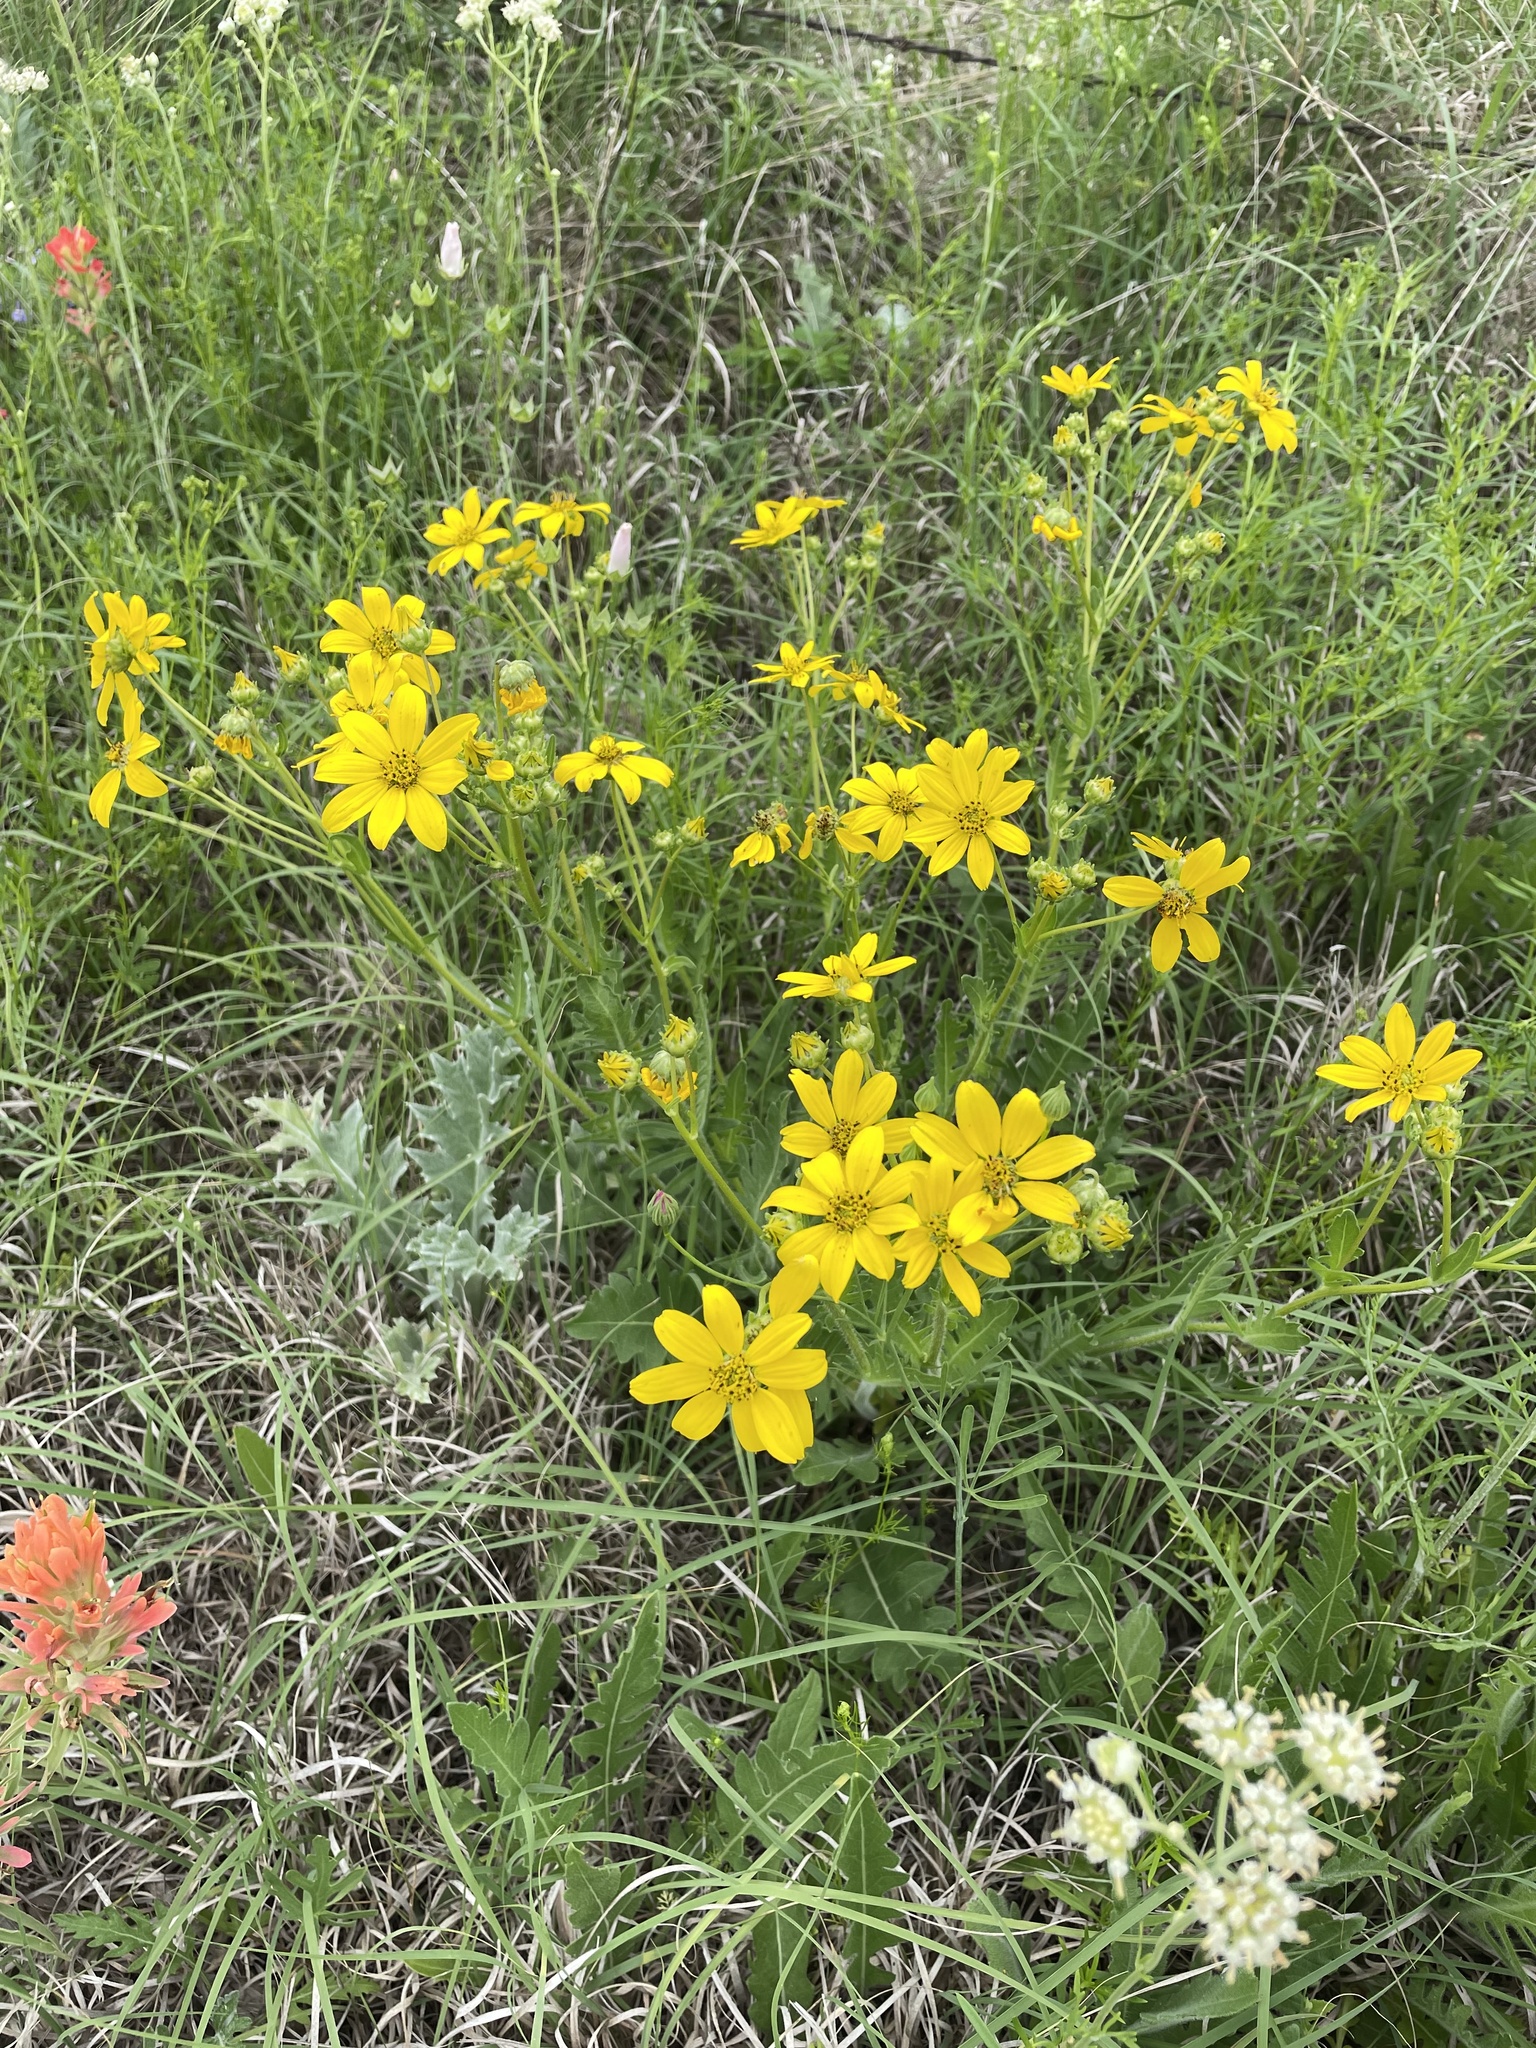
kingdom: Plantae
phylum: Tracheophyta
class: Magnoliopsida
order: Asterales
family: Asteraceae
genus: Engelmannia
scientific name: Engelmannia peristenia
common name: Engelmann's daisy
